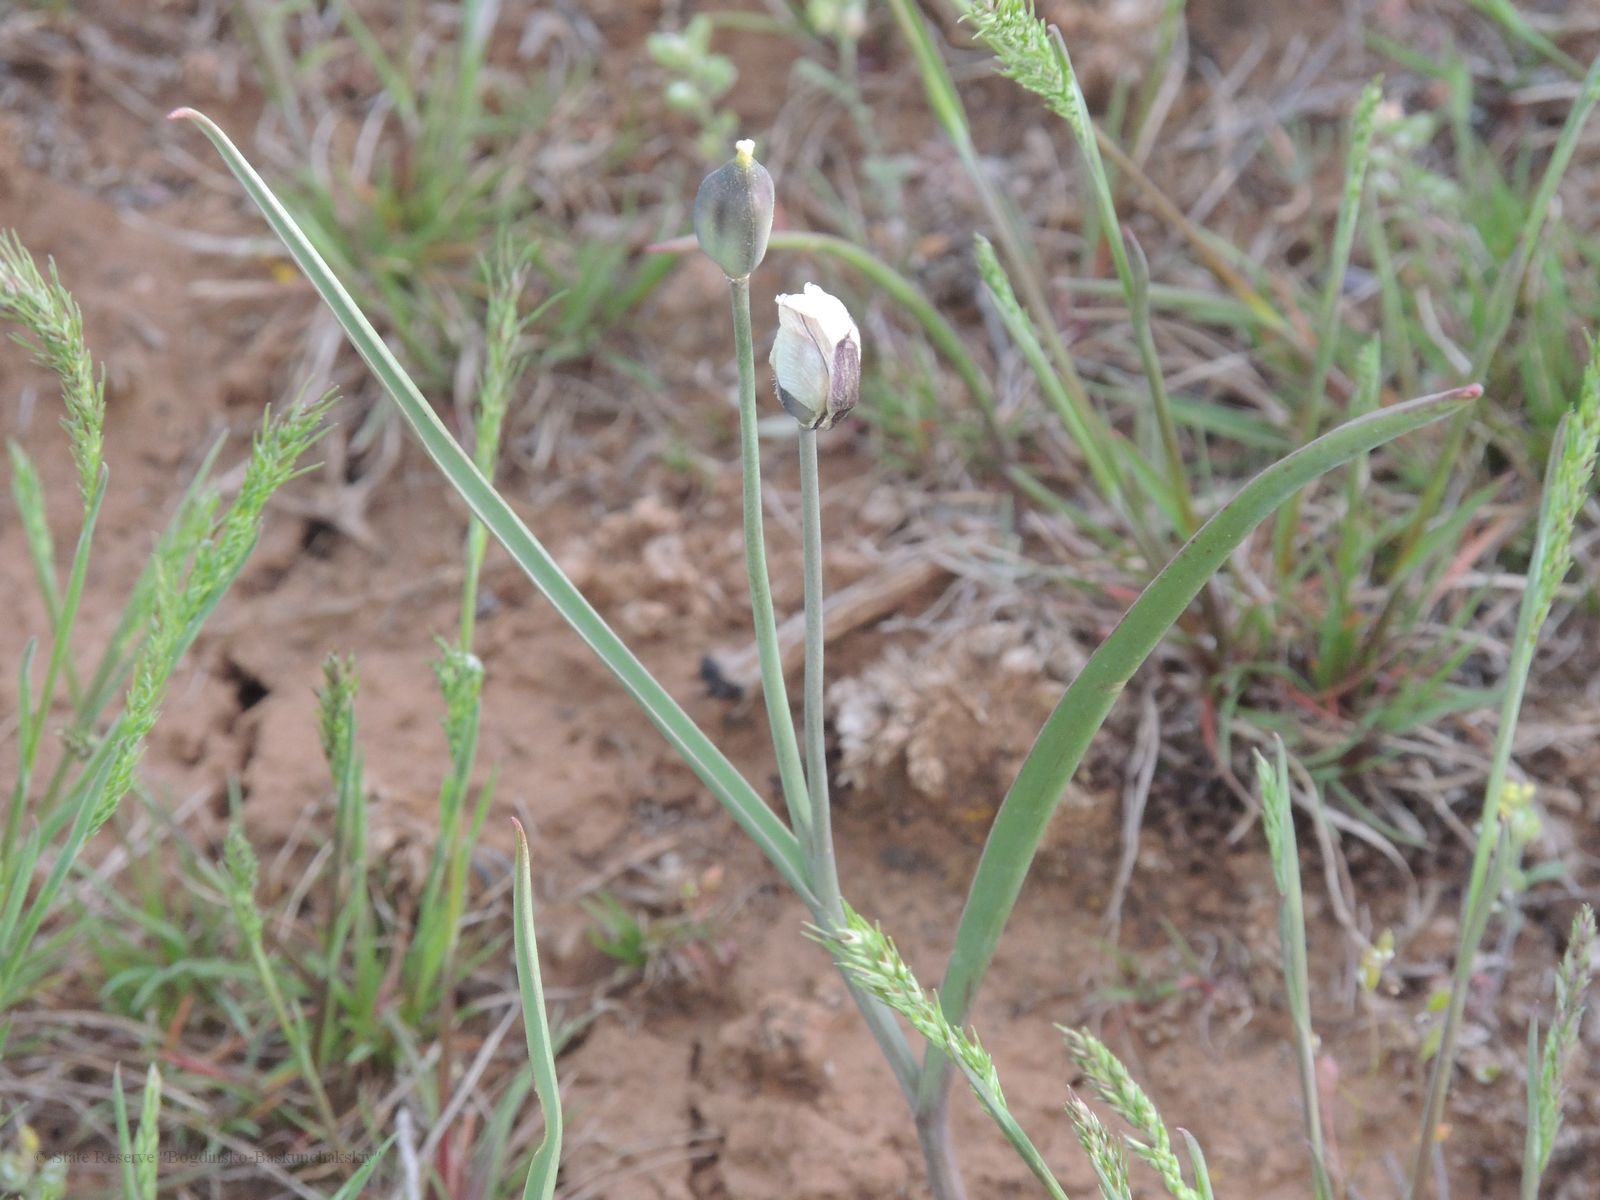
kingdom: Plantae
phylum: Tracheophyta
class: Liliopsida
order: Liliales
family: Liliaceae
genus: Tulipa
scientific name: Tulipa biflora
